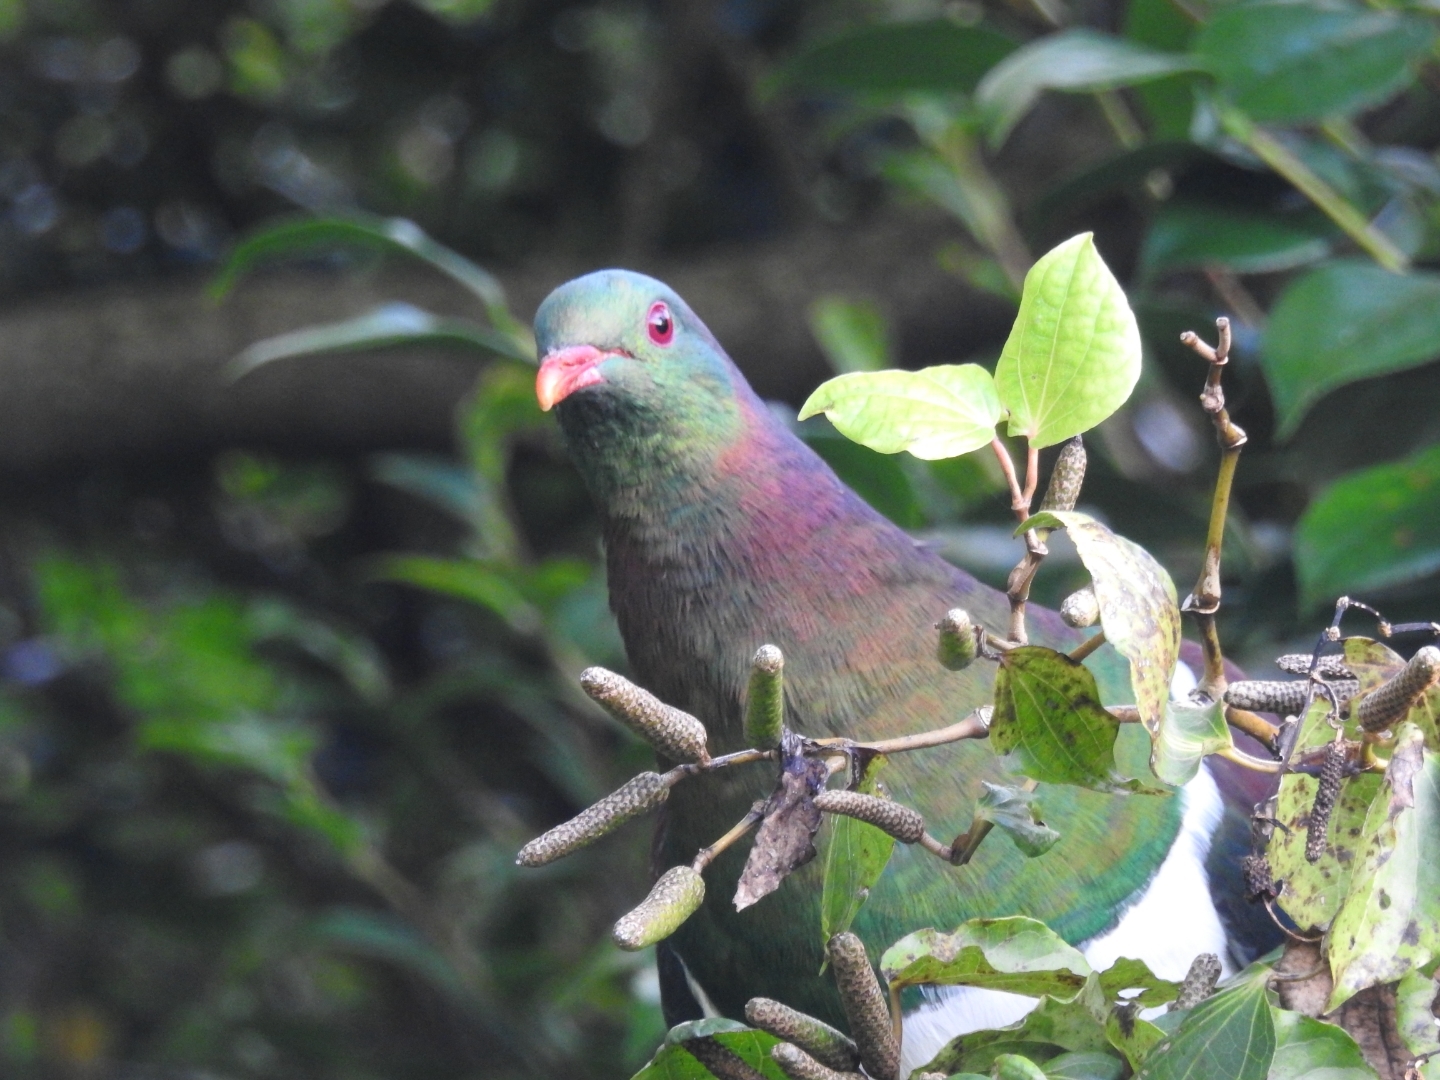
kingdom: Animalia
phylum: Chordata
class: Aves
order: Columbiformes
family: Columbidae
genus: Hemiphaga
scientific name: Hemiphaga novaeseelandiae
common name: New zealand pigeon
